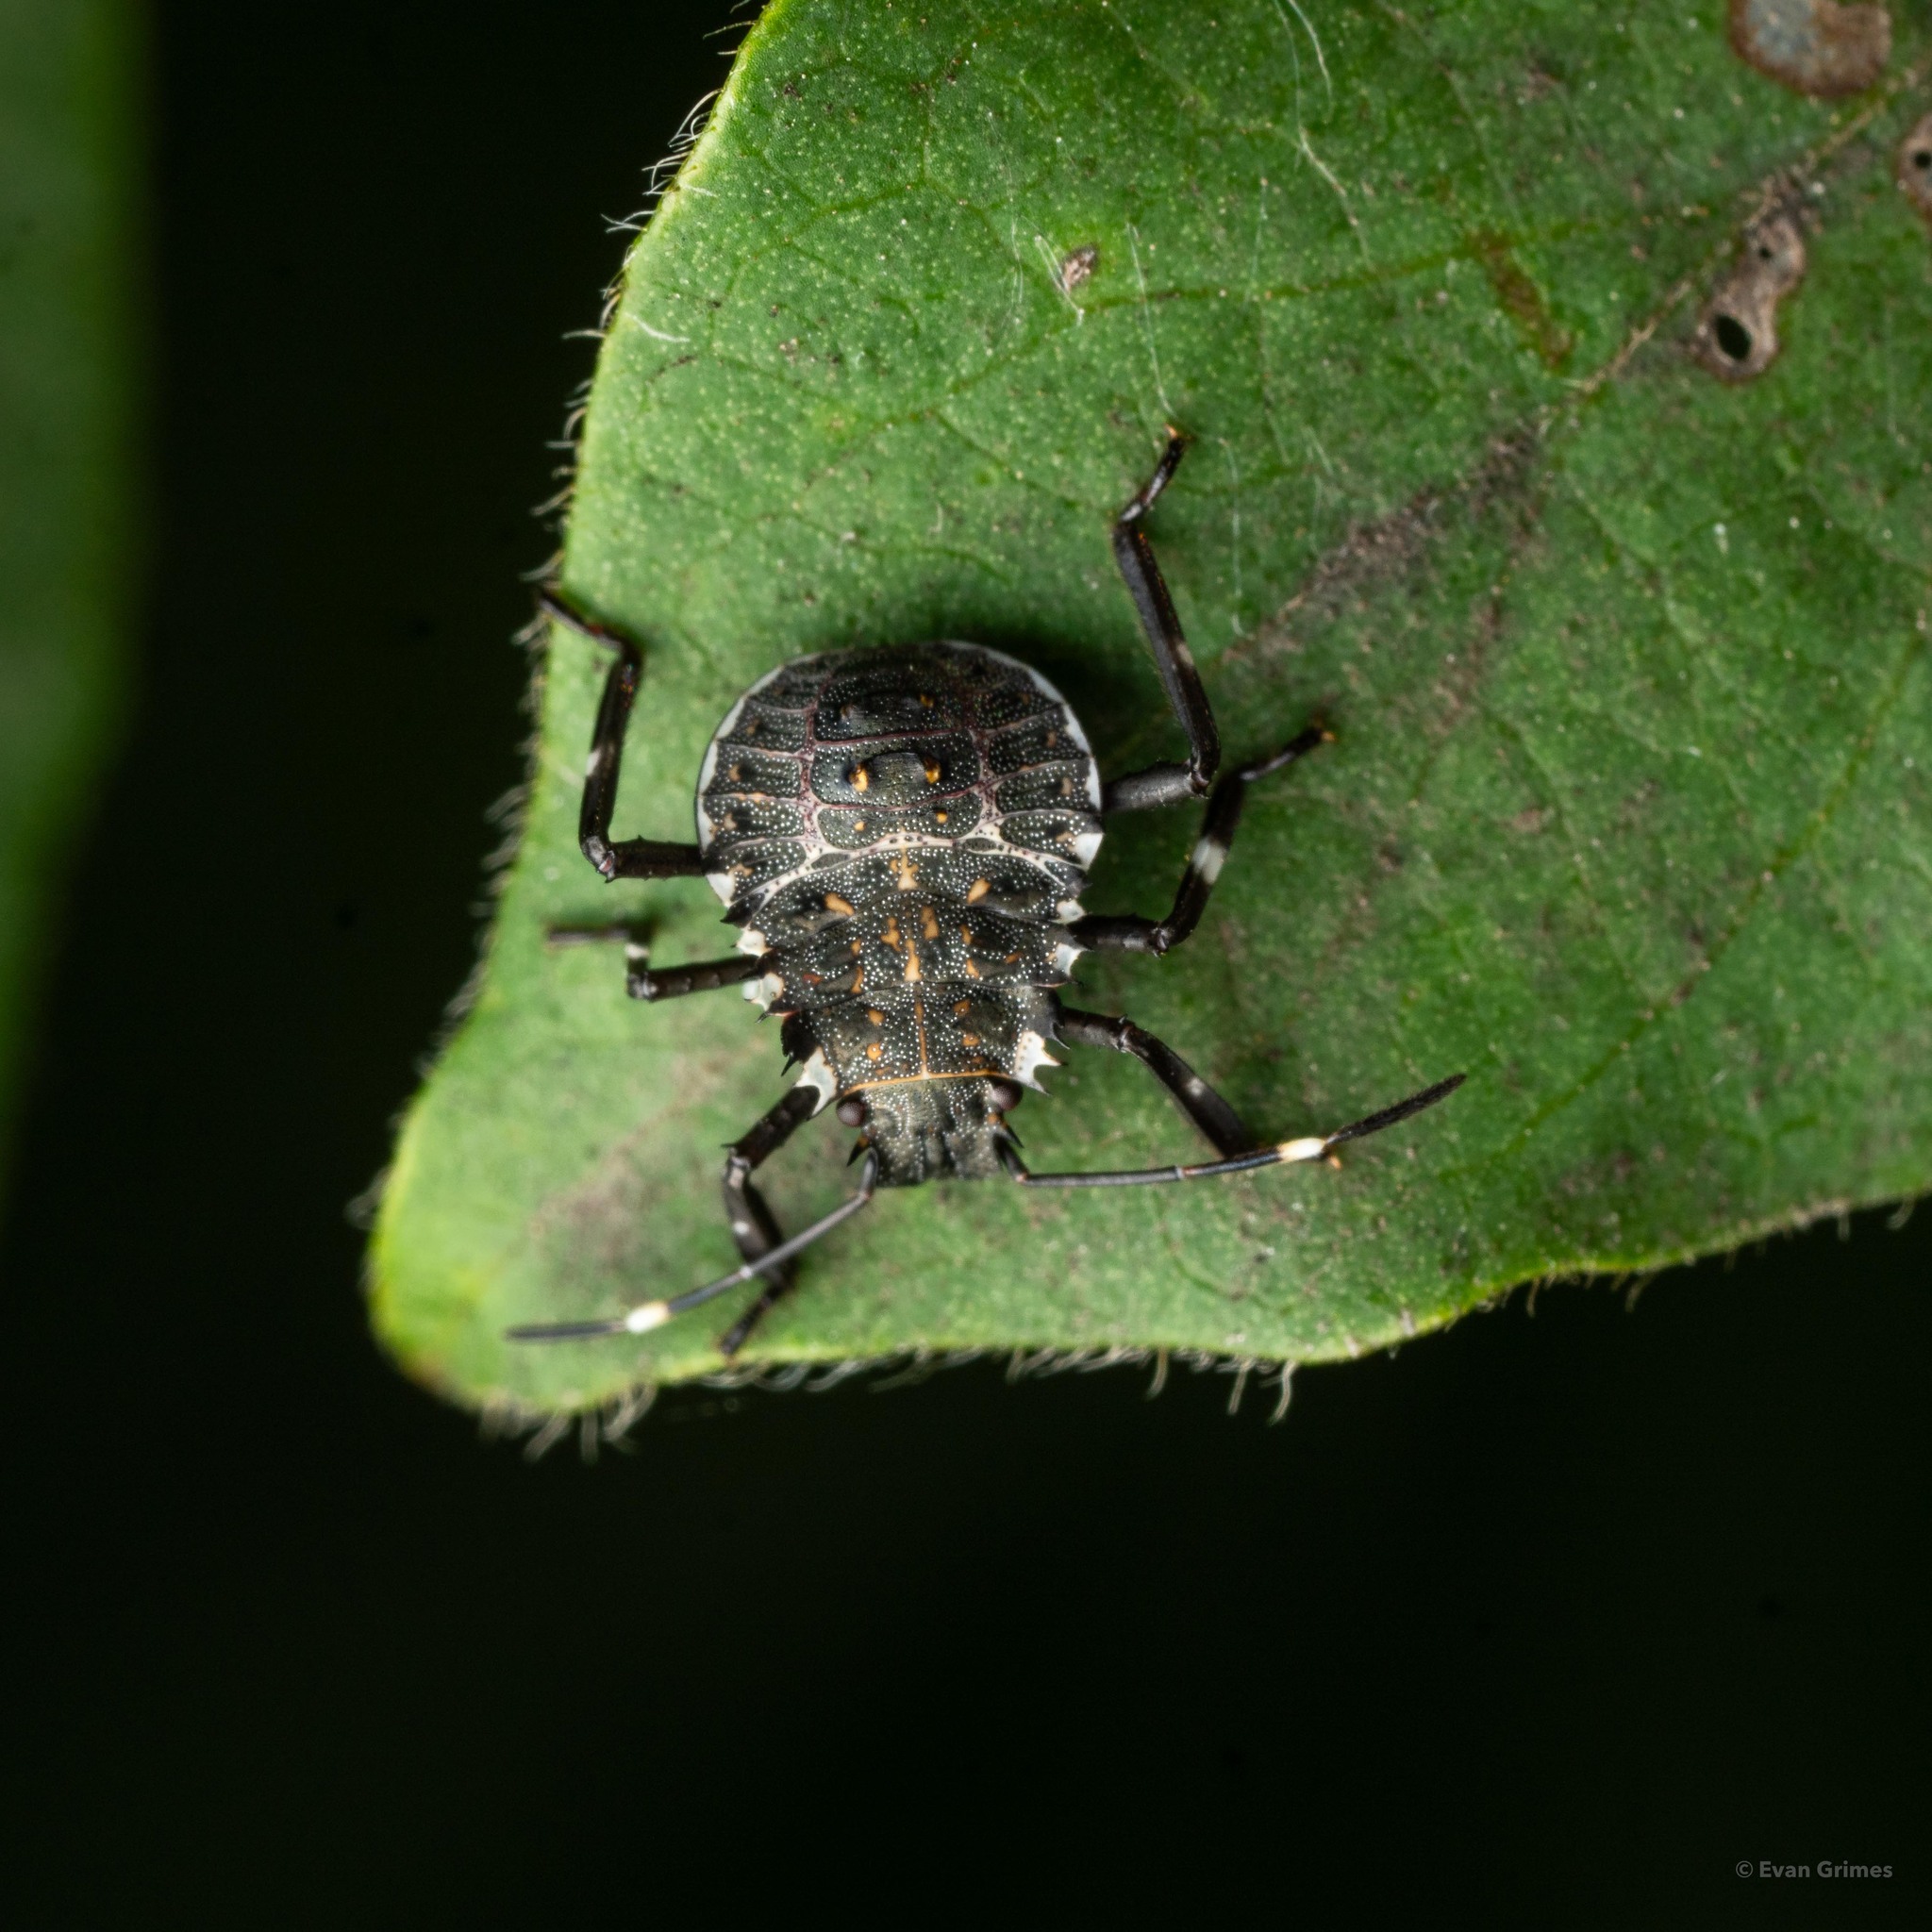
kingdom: Animalia
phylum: Arthropoda
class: Insecta
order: Hemiptera
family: Pentatomidae
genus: Halyomorpha
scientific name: Halyomorpha halys
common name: Brown marmorated stink bug
